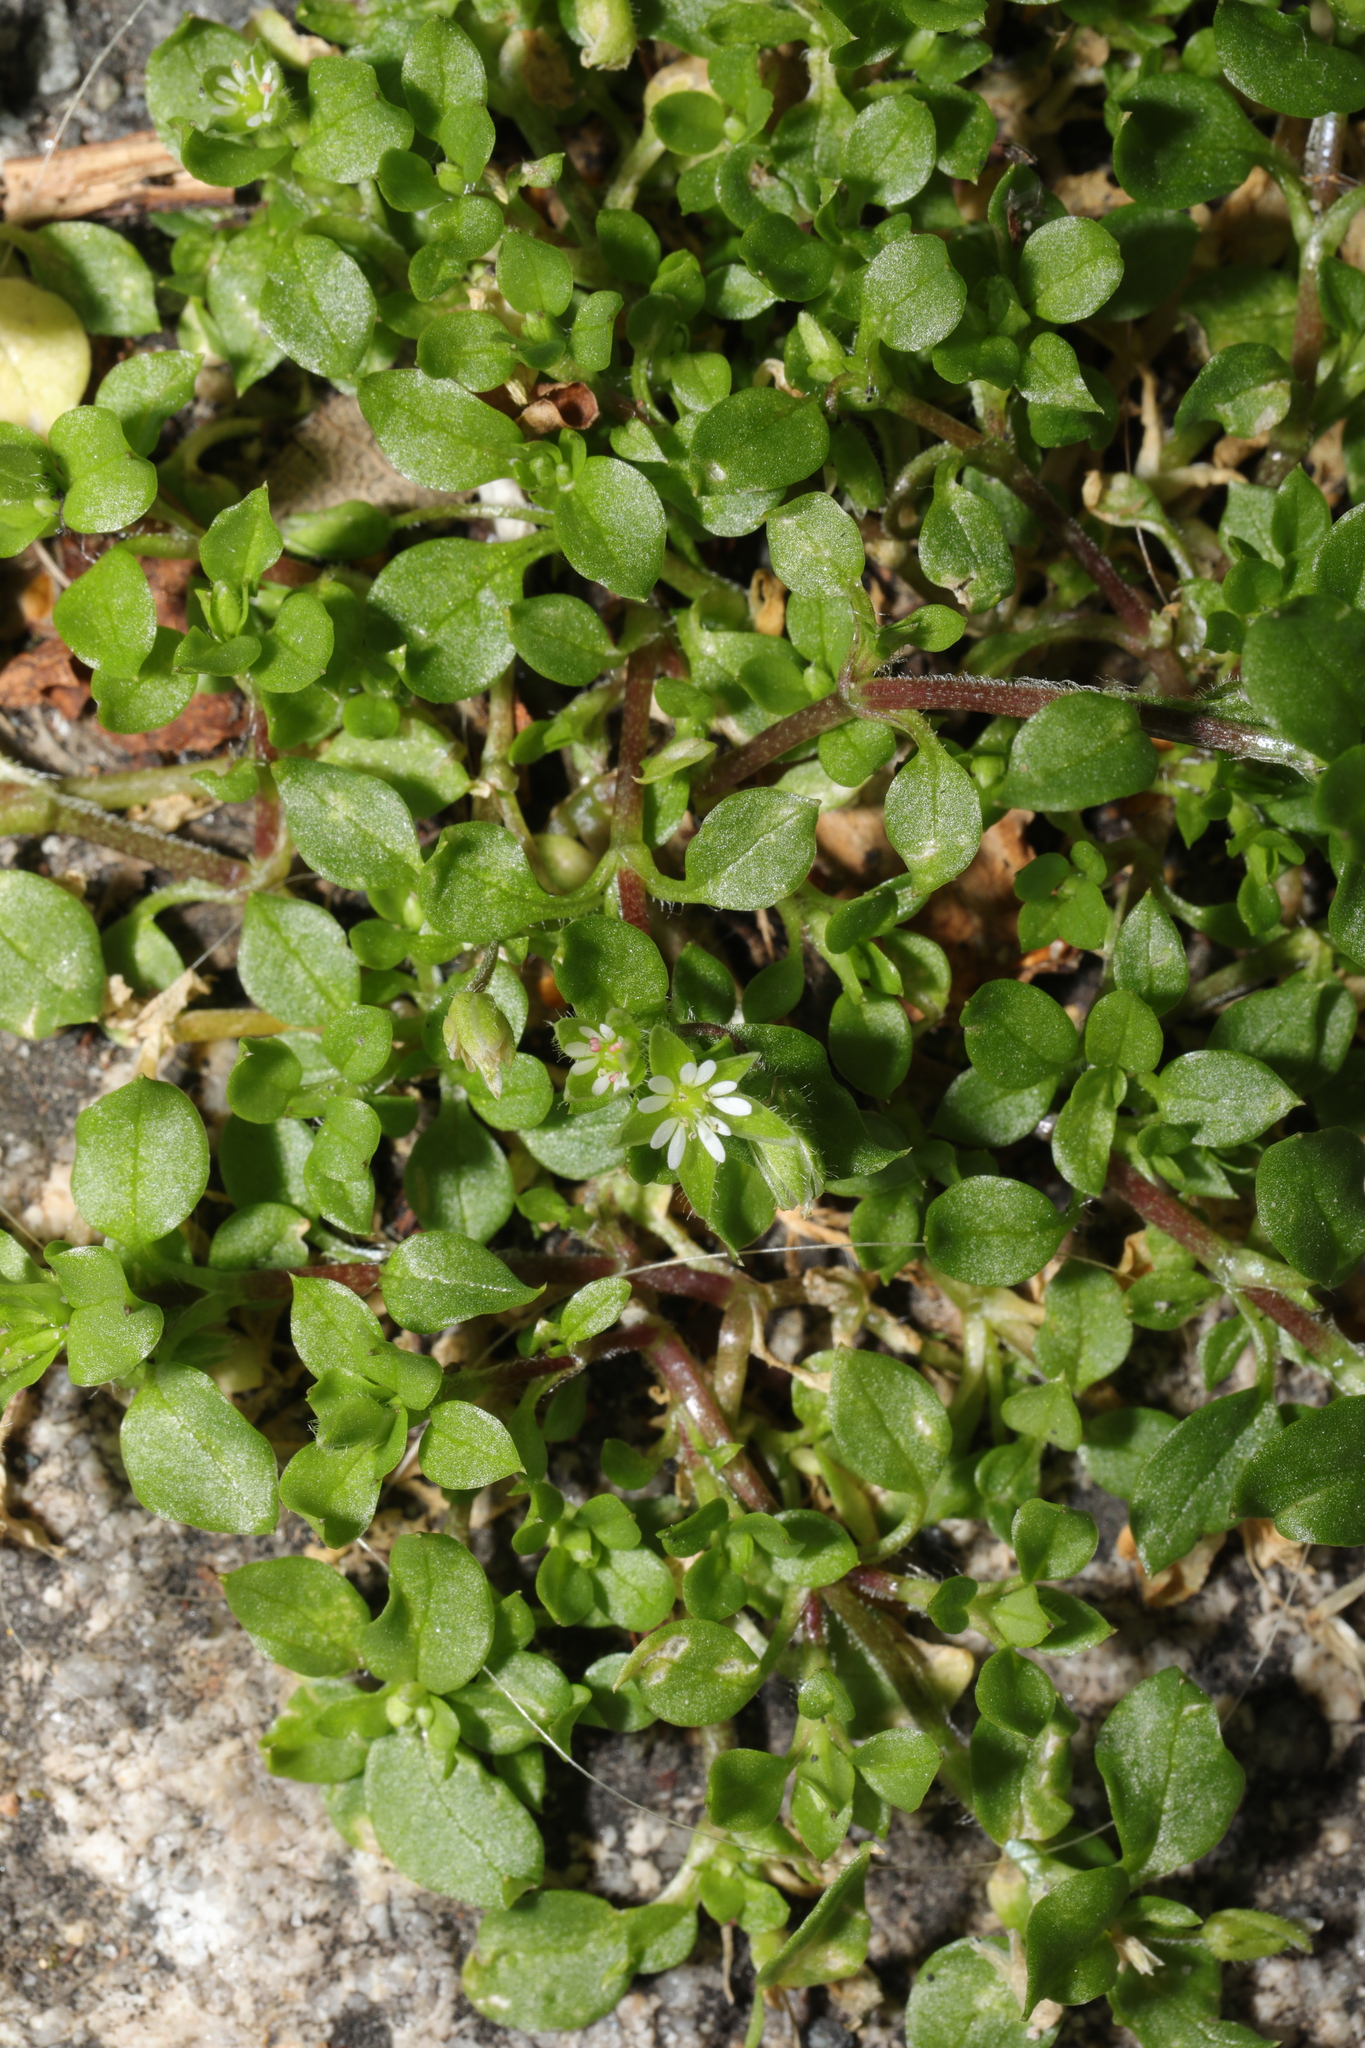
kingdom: Plantae
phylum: Tracheophyta
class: Magnoliopsida
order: Caryophyllales
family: Caryophyllaceae
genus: Stellaria
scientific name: Stellaria media
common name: Common chickweed
